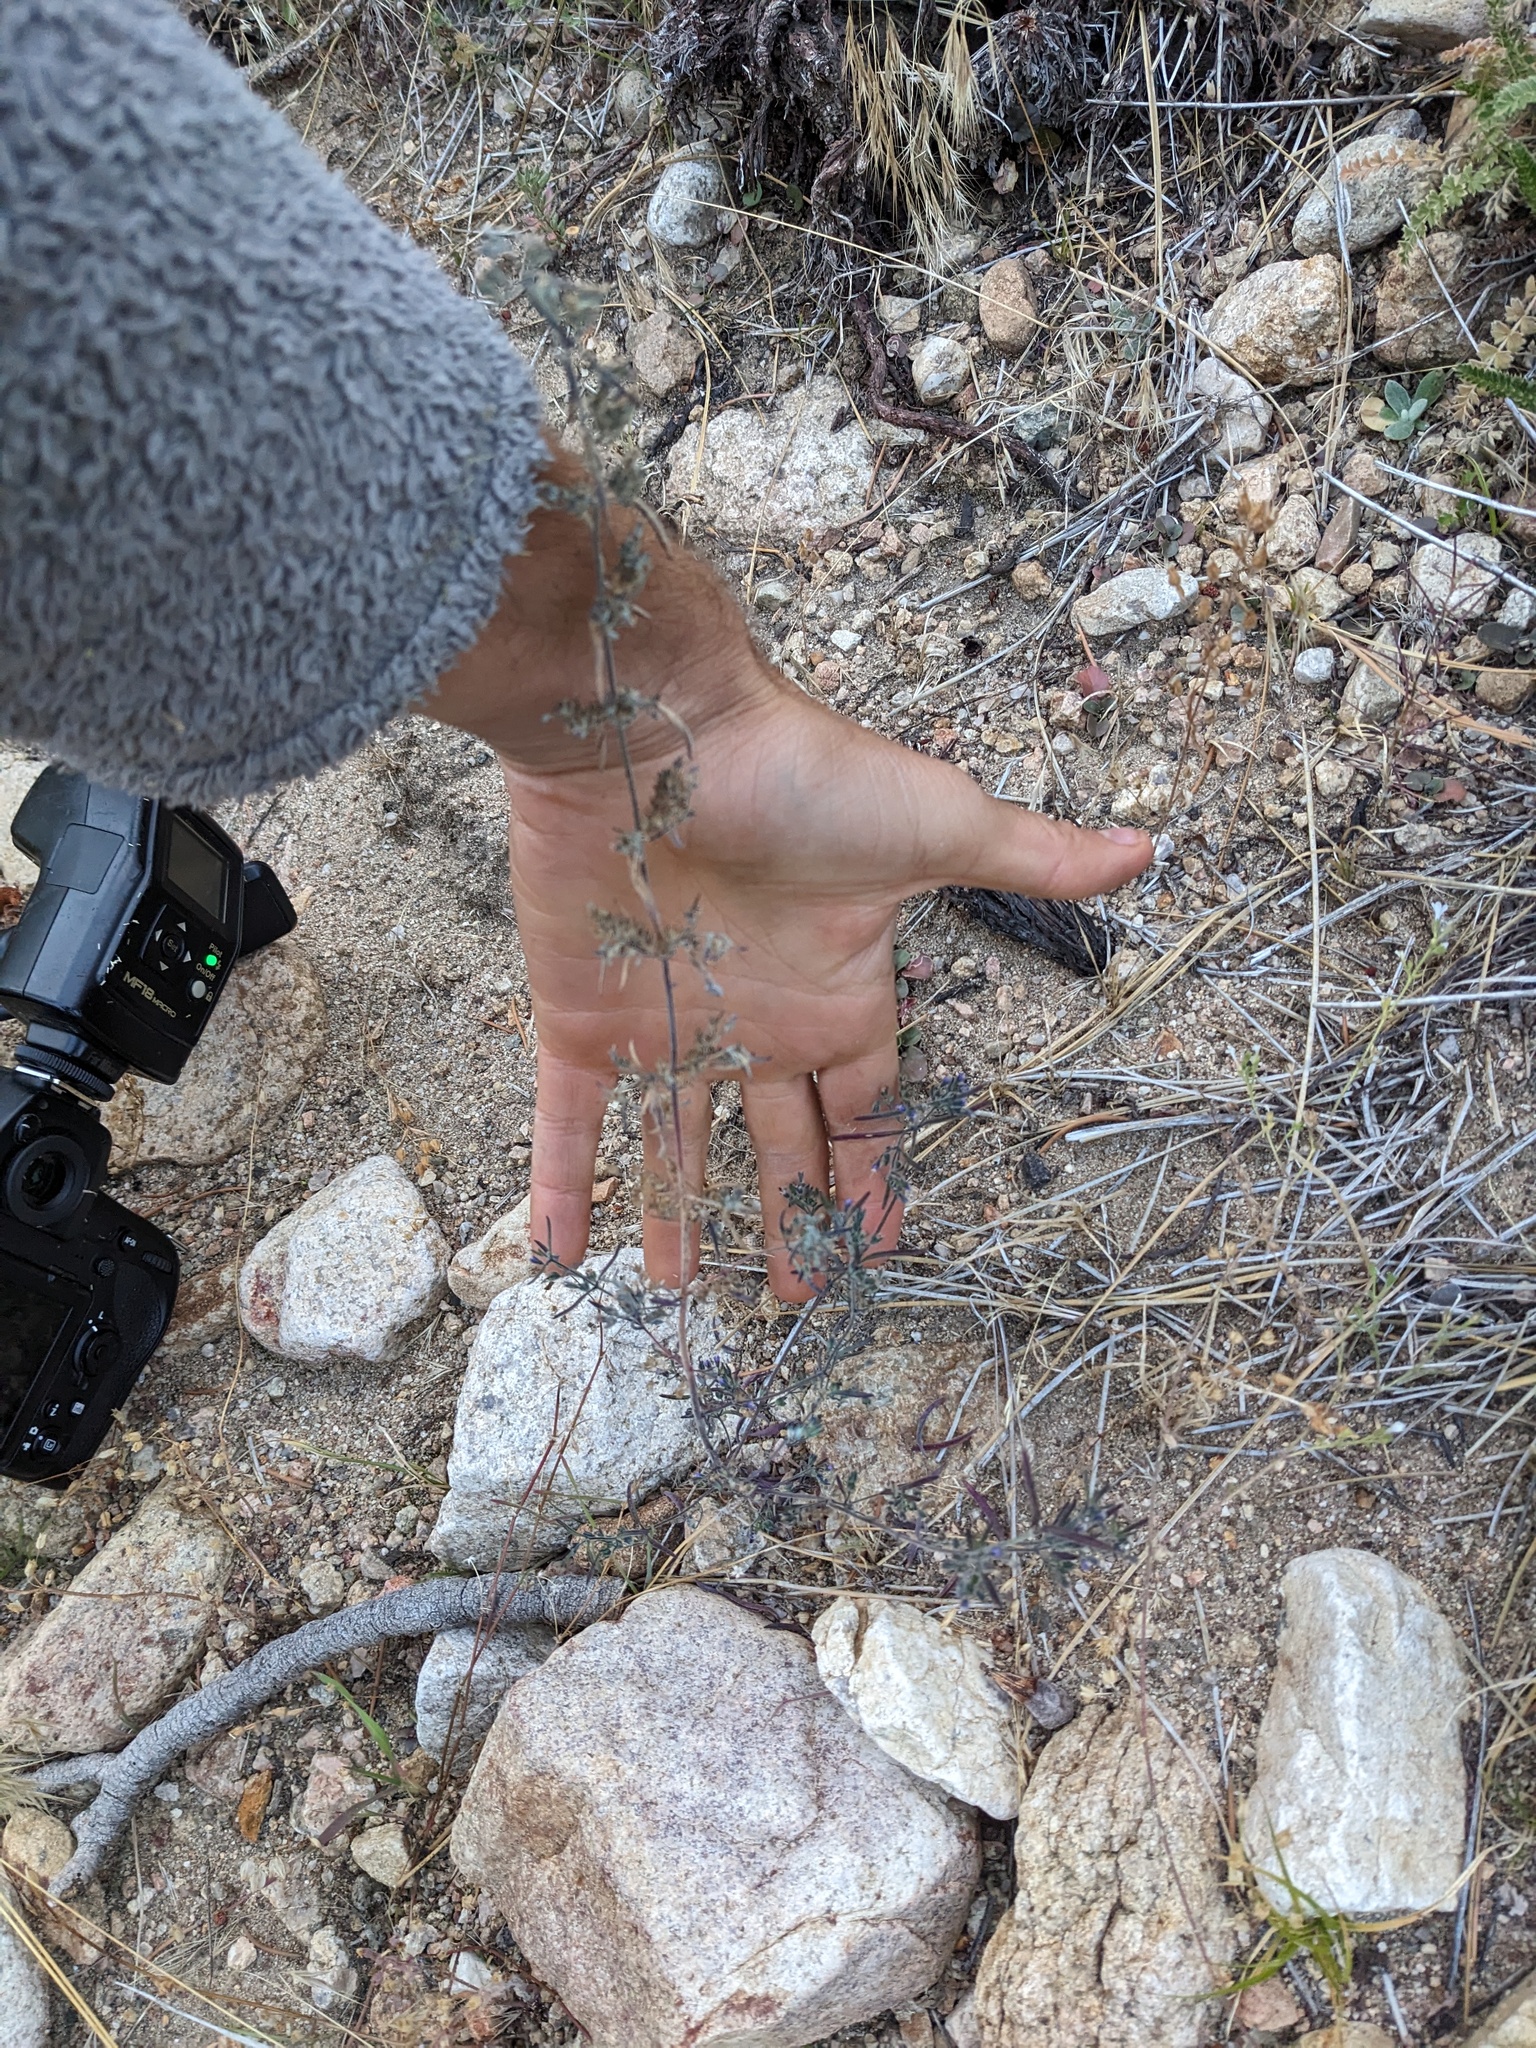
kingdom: Plantae
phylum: Tracheophyta
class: Magnoliopsida
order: Lamiales
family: Lamiaceae
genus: Trichostema
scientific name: Trichostema micranthum
